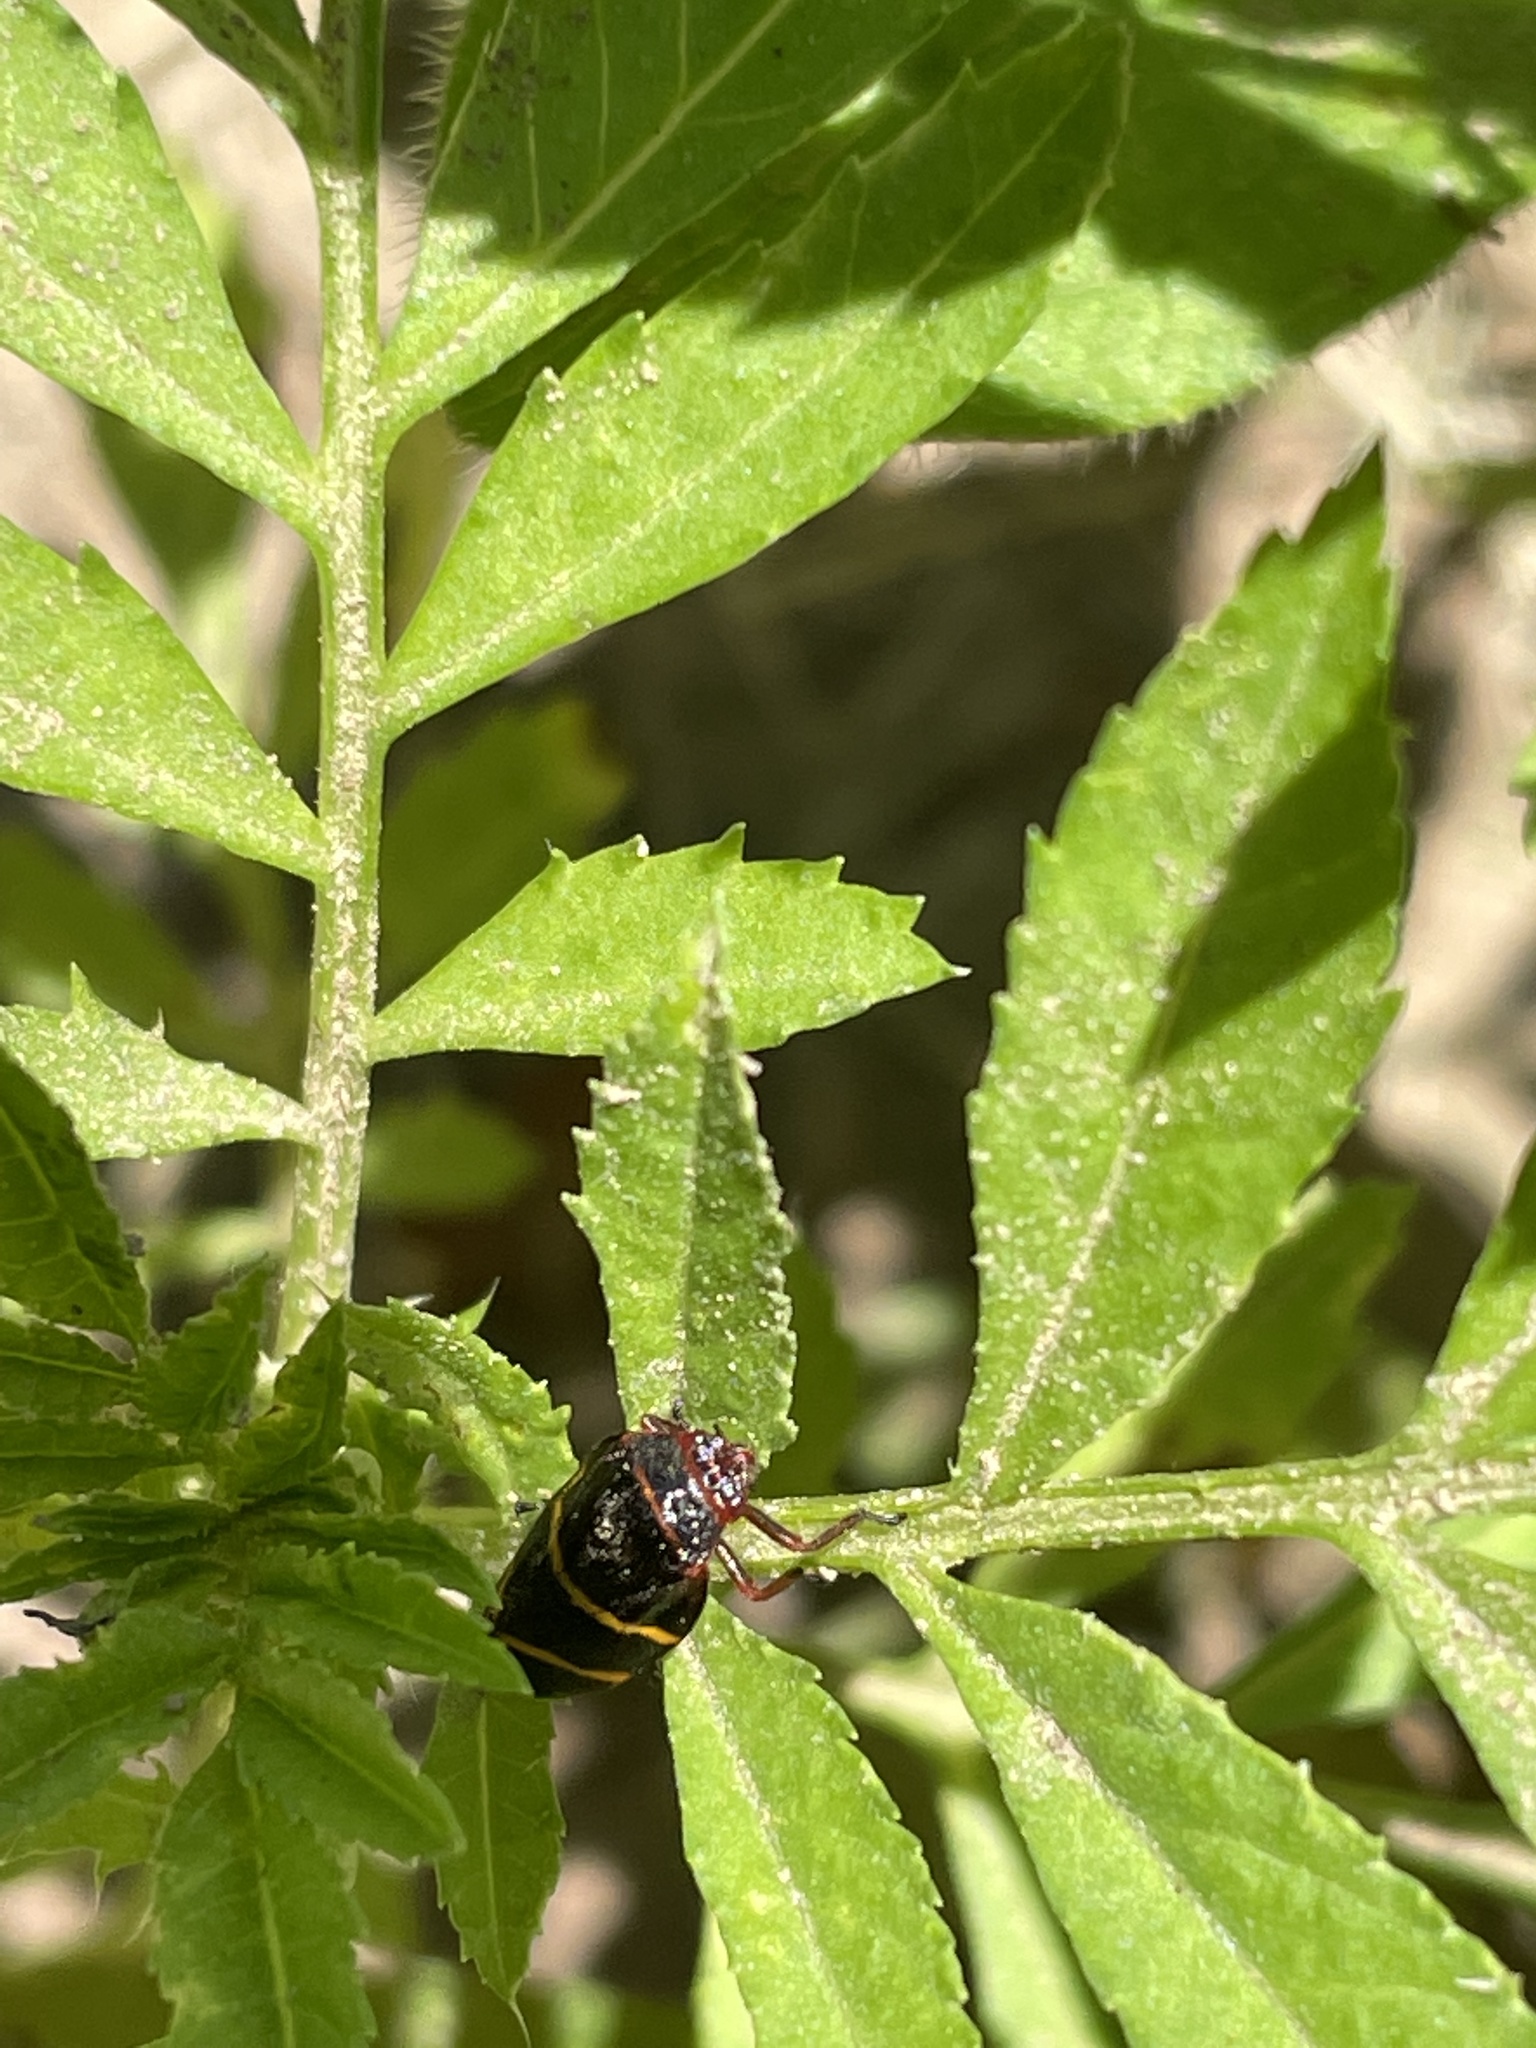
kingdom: Animalia
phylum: Arthropoda
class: Insecta
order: Hemiptera
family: Cercopidae
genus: Prosapia
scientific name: Prosapia bicincta
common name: Twolined spittlebug
